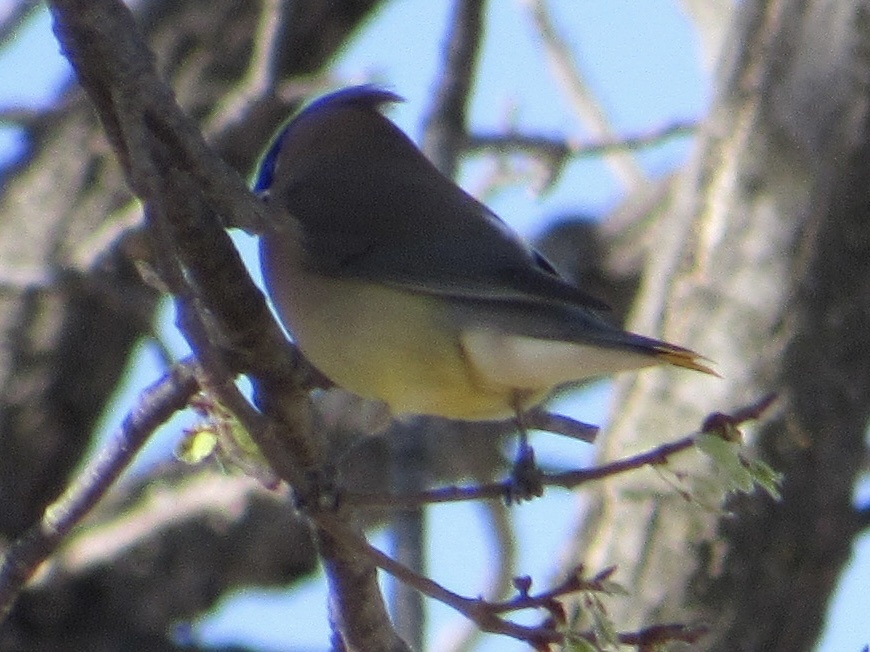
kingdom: Animalia
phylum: Chordata
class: Aves
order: Passeriformes
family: Bombycillidae
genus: Bombycilla
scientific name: Bombycilla cedrorum
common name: Cedar waxwing
